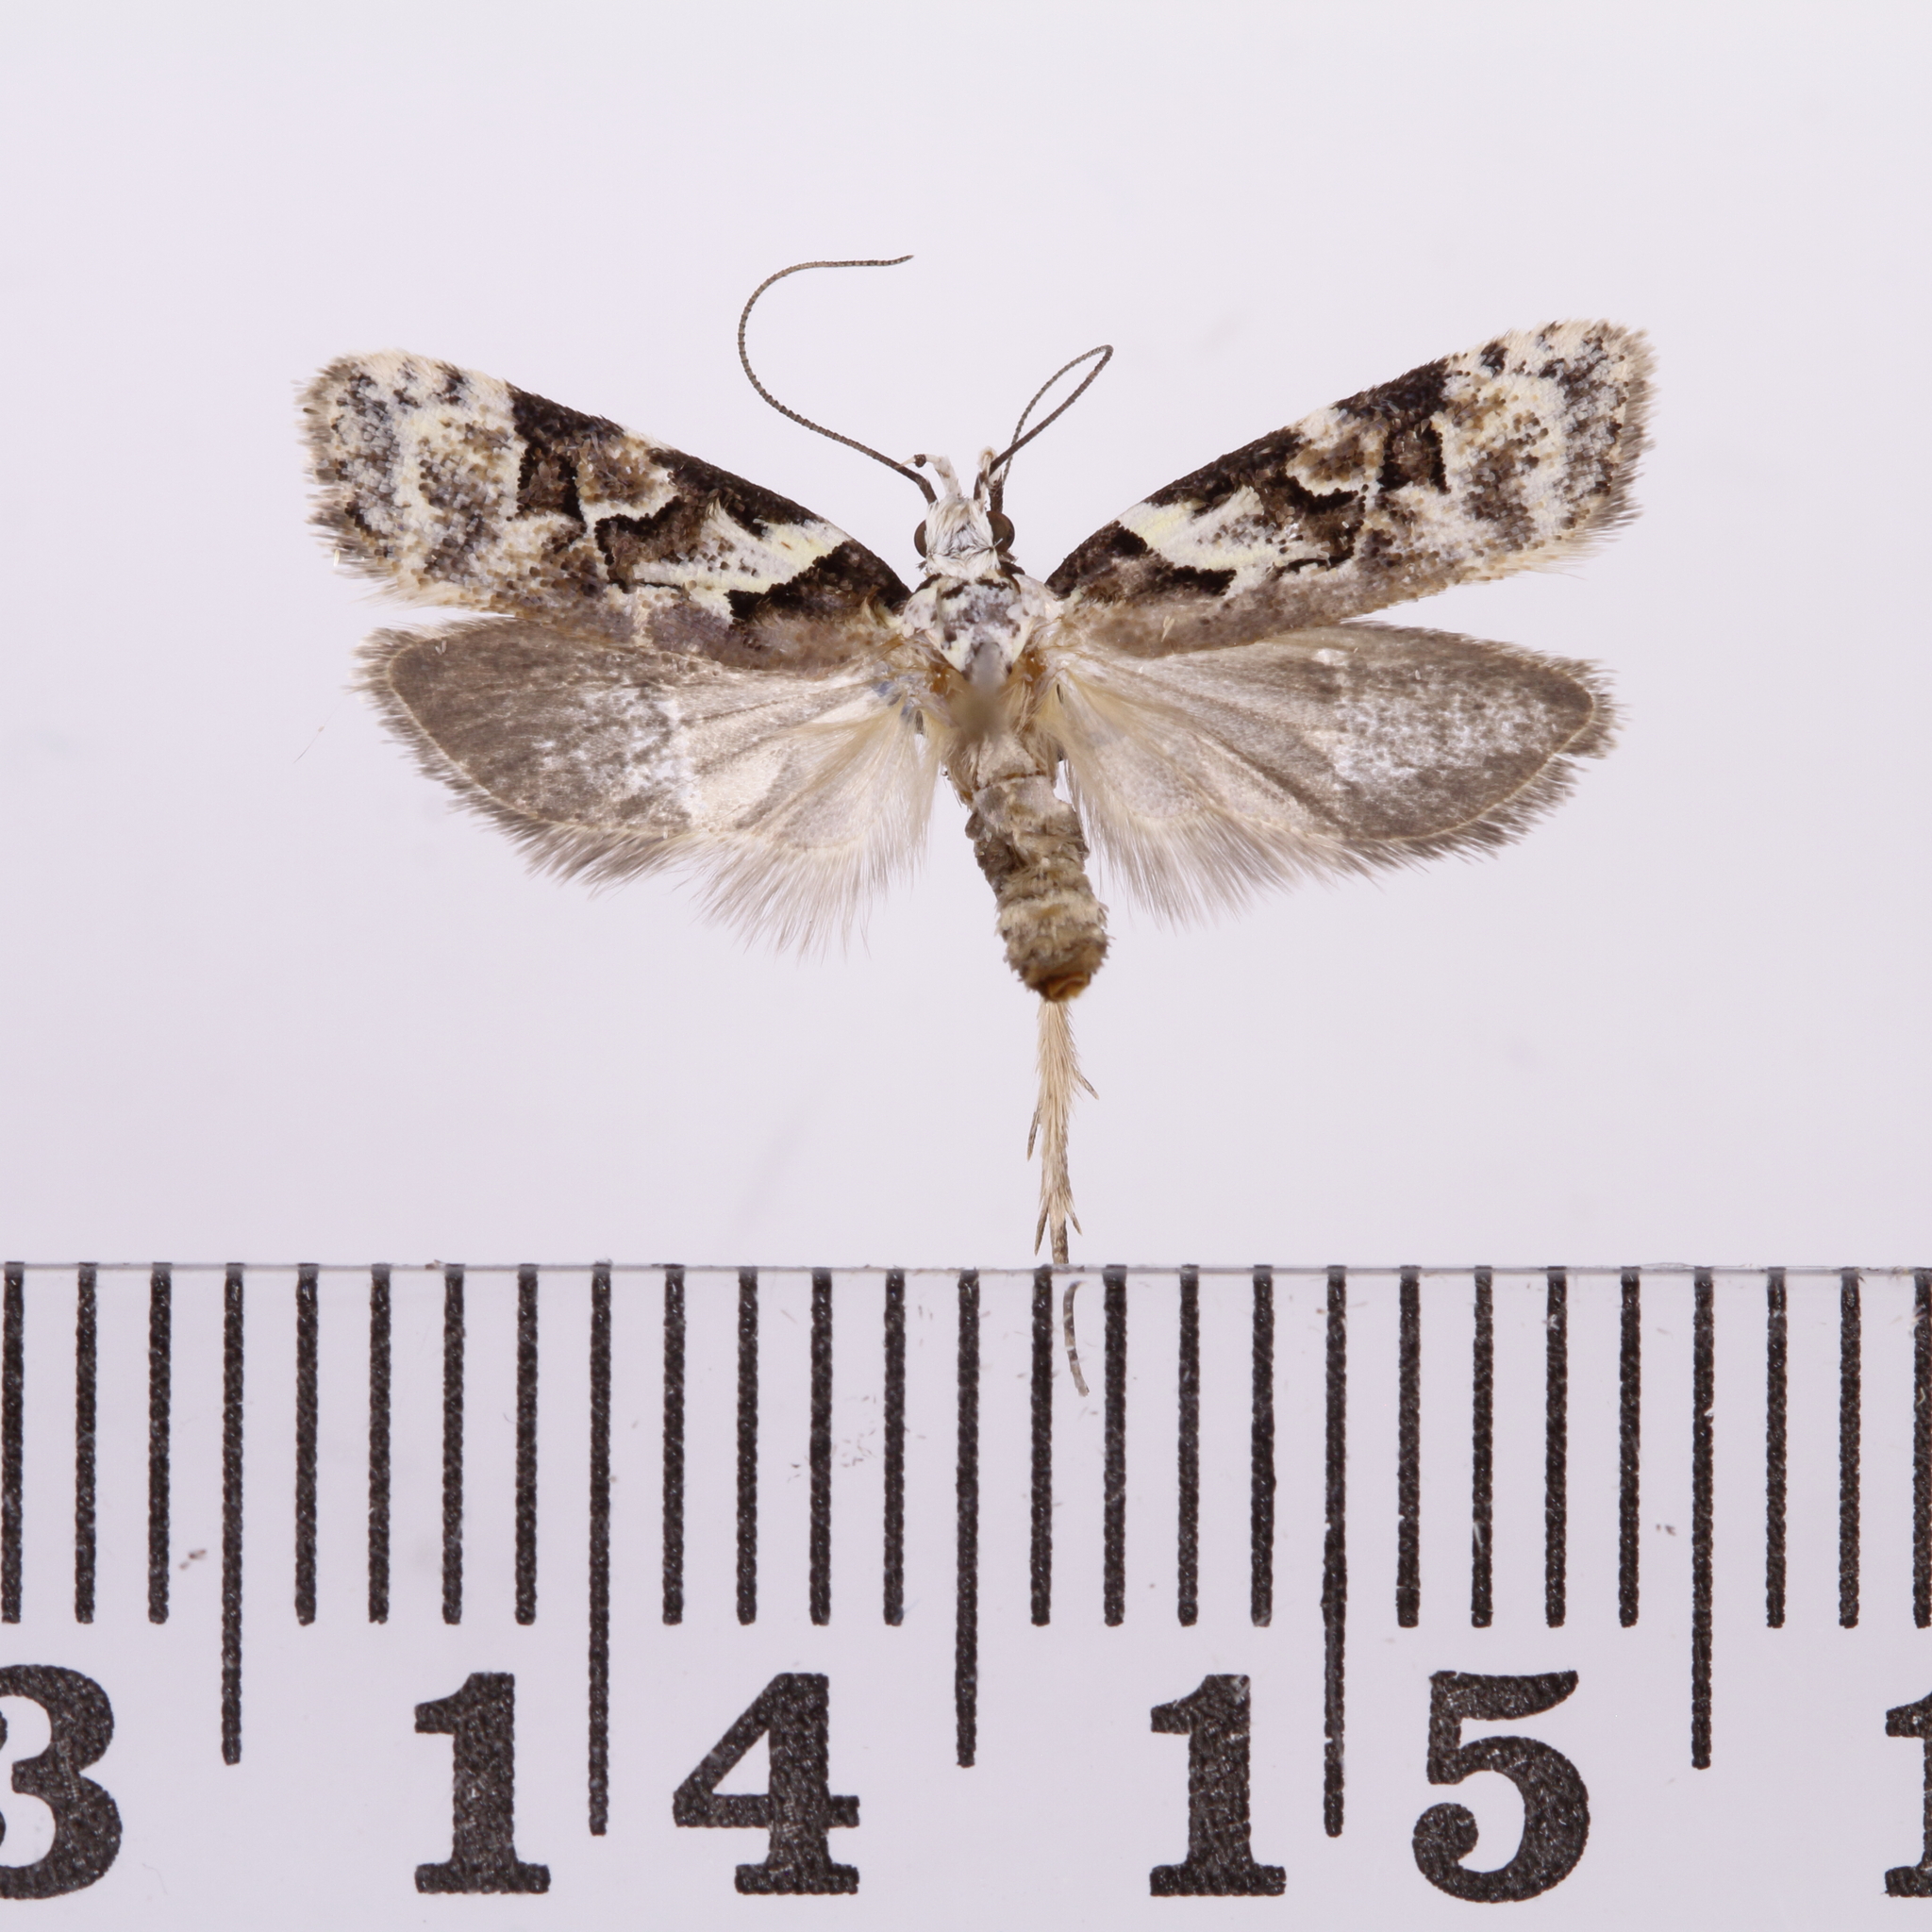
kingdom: Animalia
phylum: Arthropoda
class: Insecta
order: Lepidoptera
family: Oecophoridae
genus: Izatha
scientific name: Izatha epiphanes
